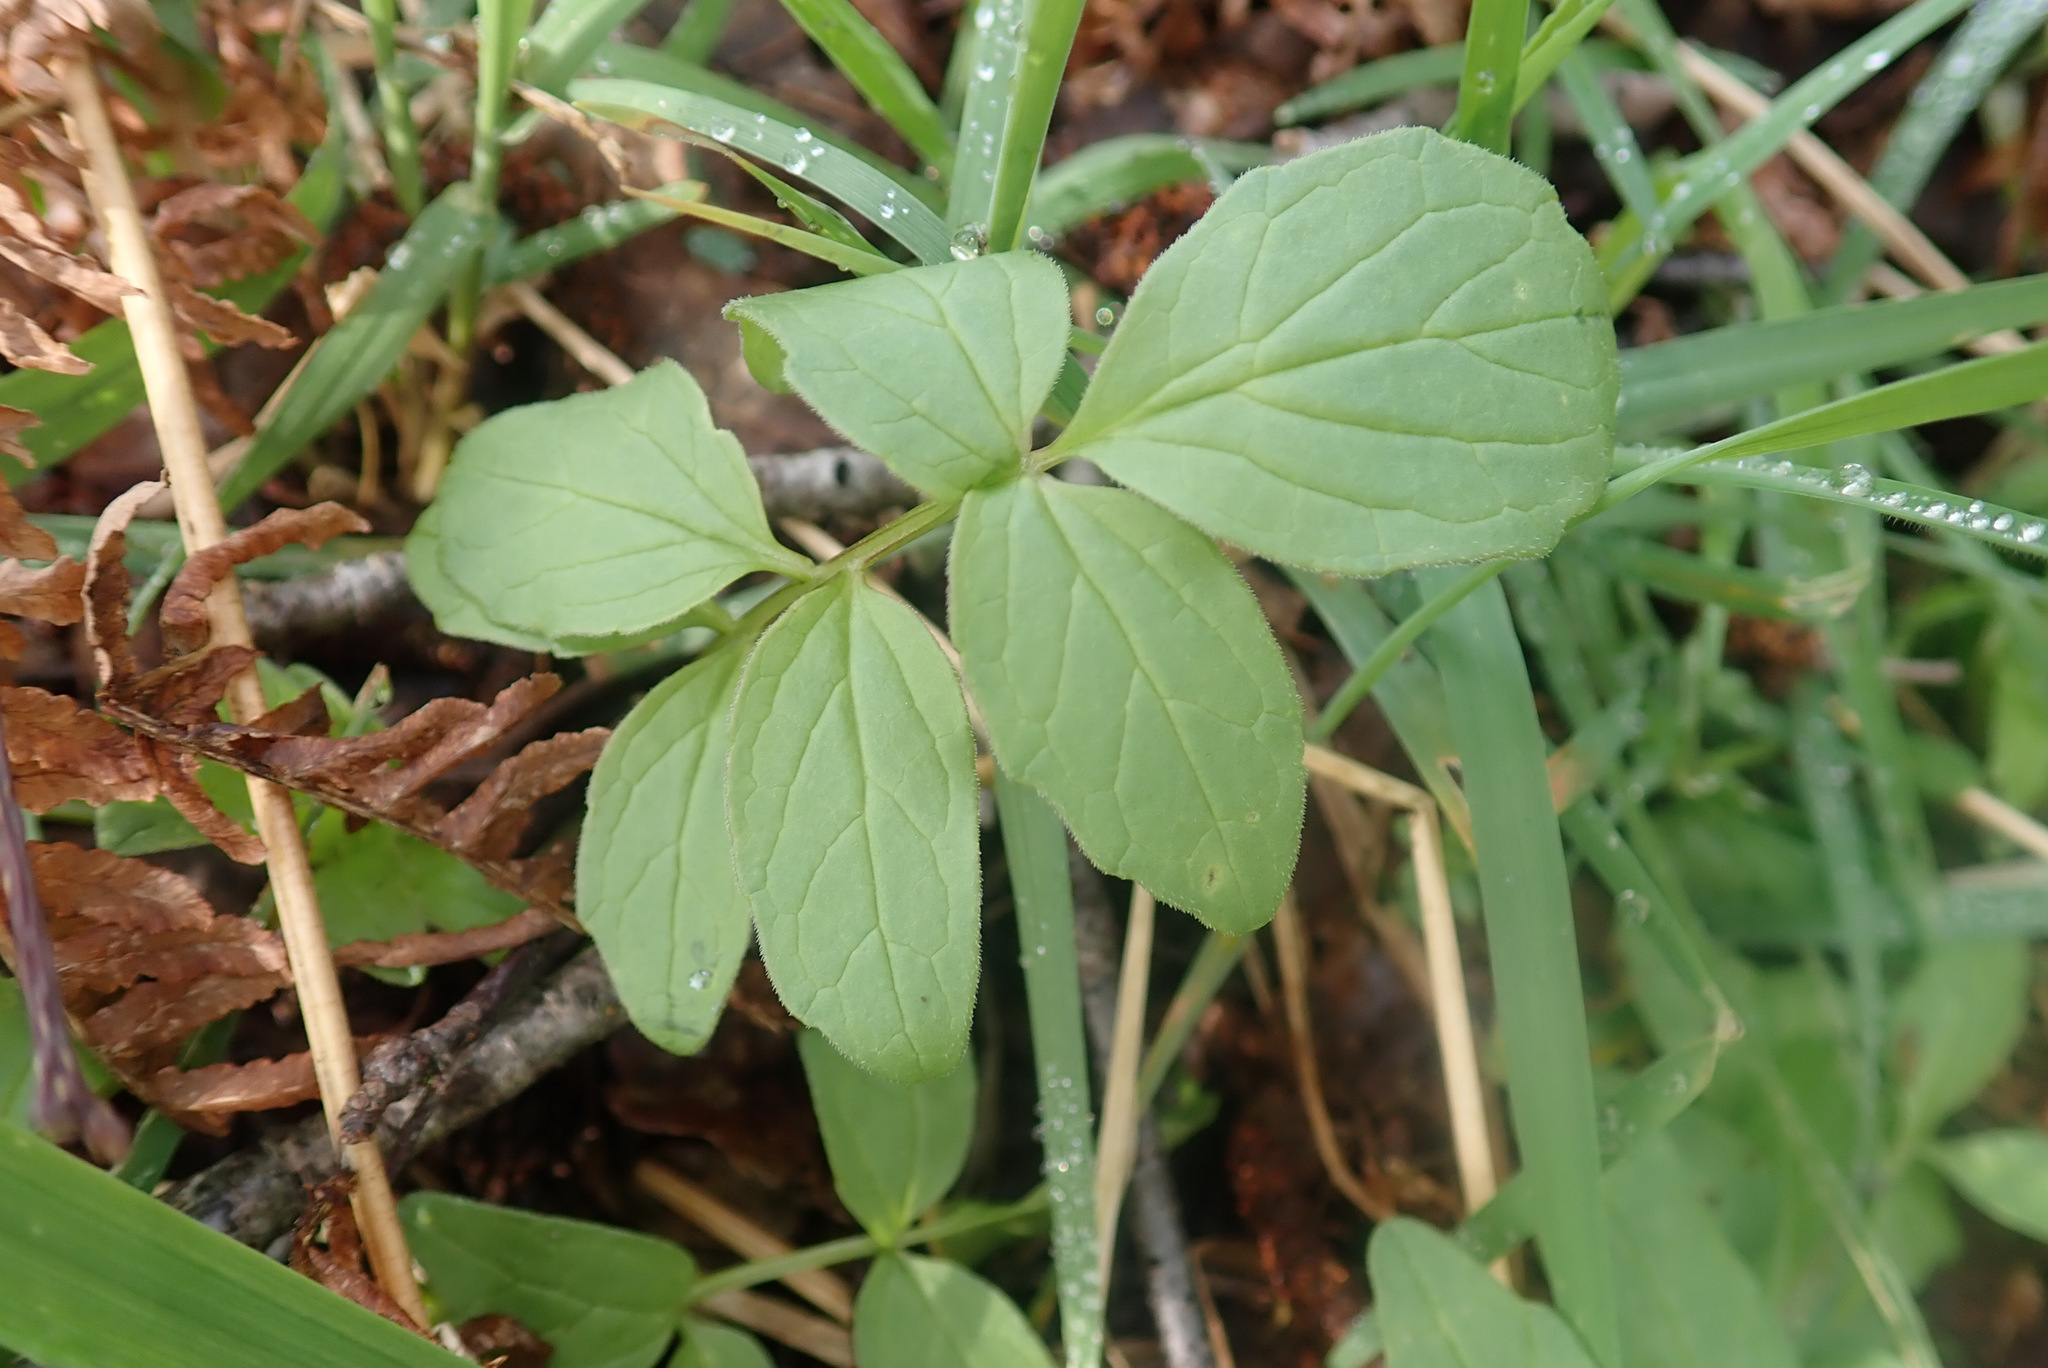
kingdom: Plantae
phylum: Tracheophyta
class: Magnoliopsida
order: Dipsacales
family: Caprifoliaceae
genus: Valeriana
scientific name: Valeriana officinalis
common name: Common valerian
